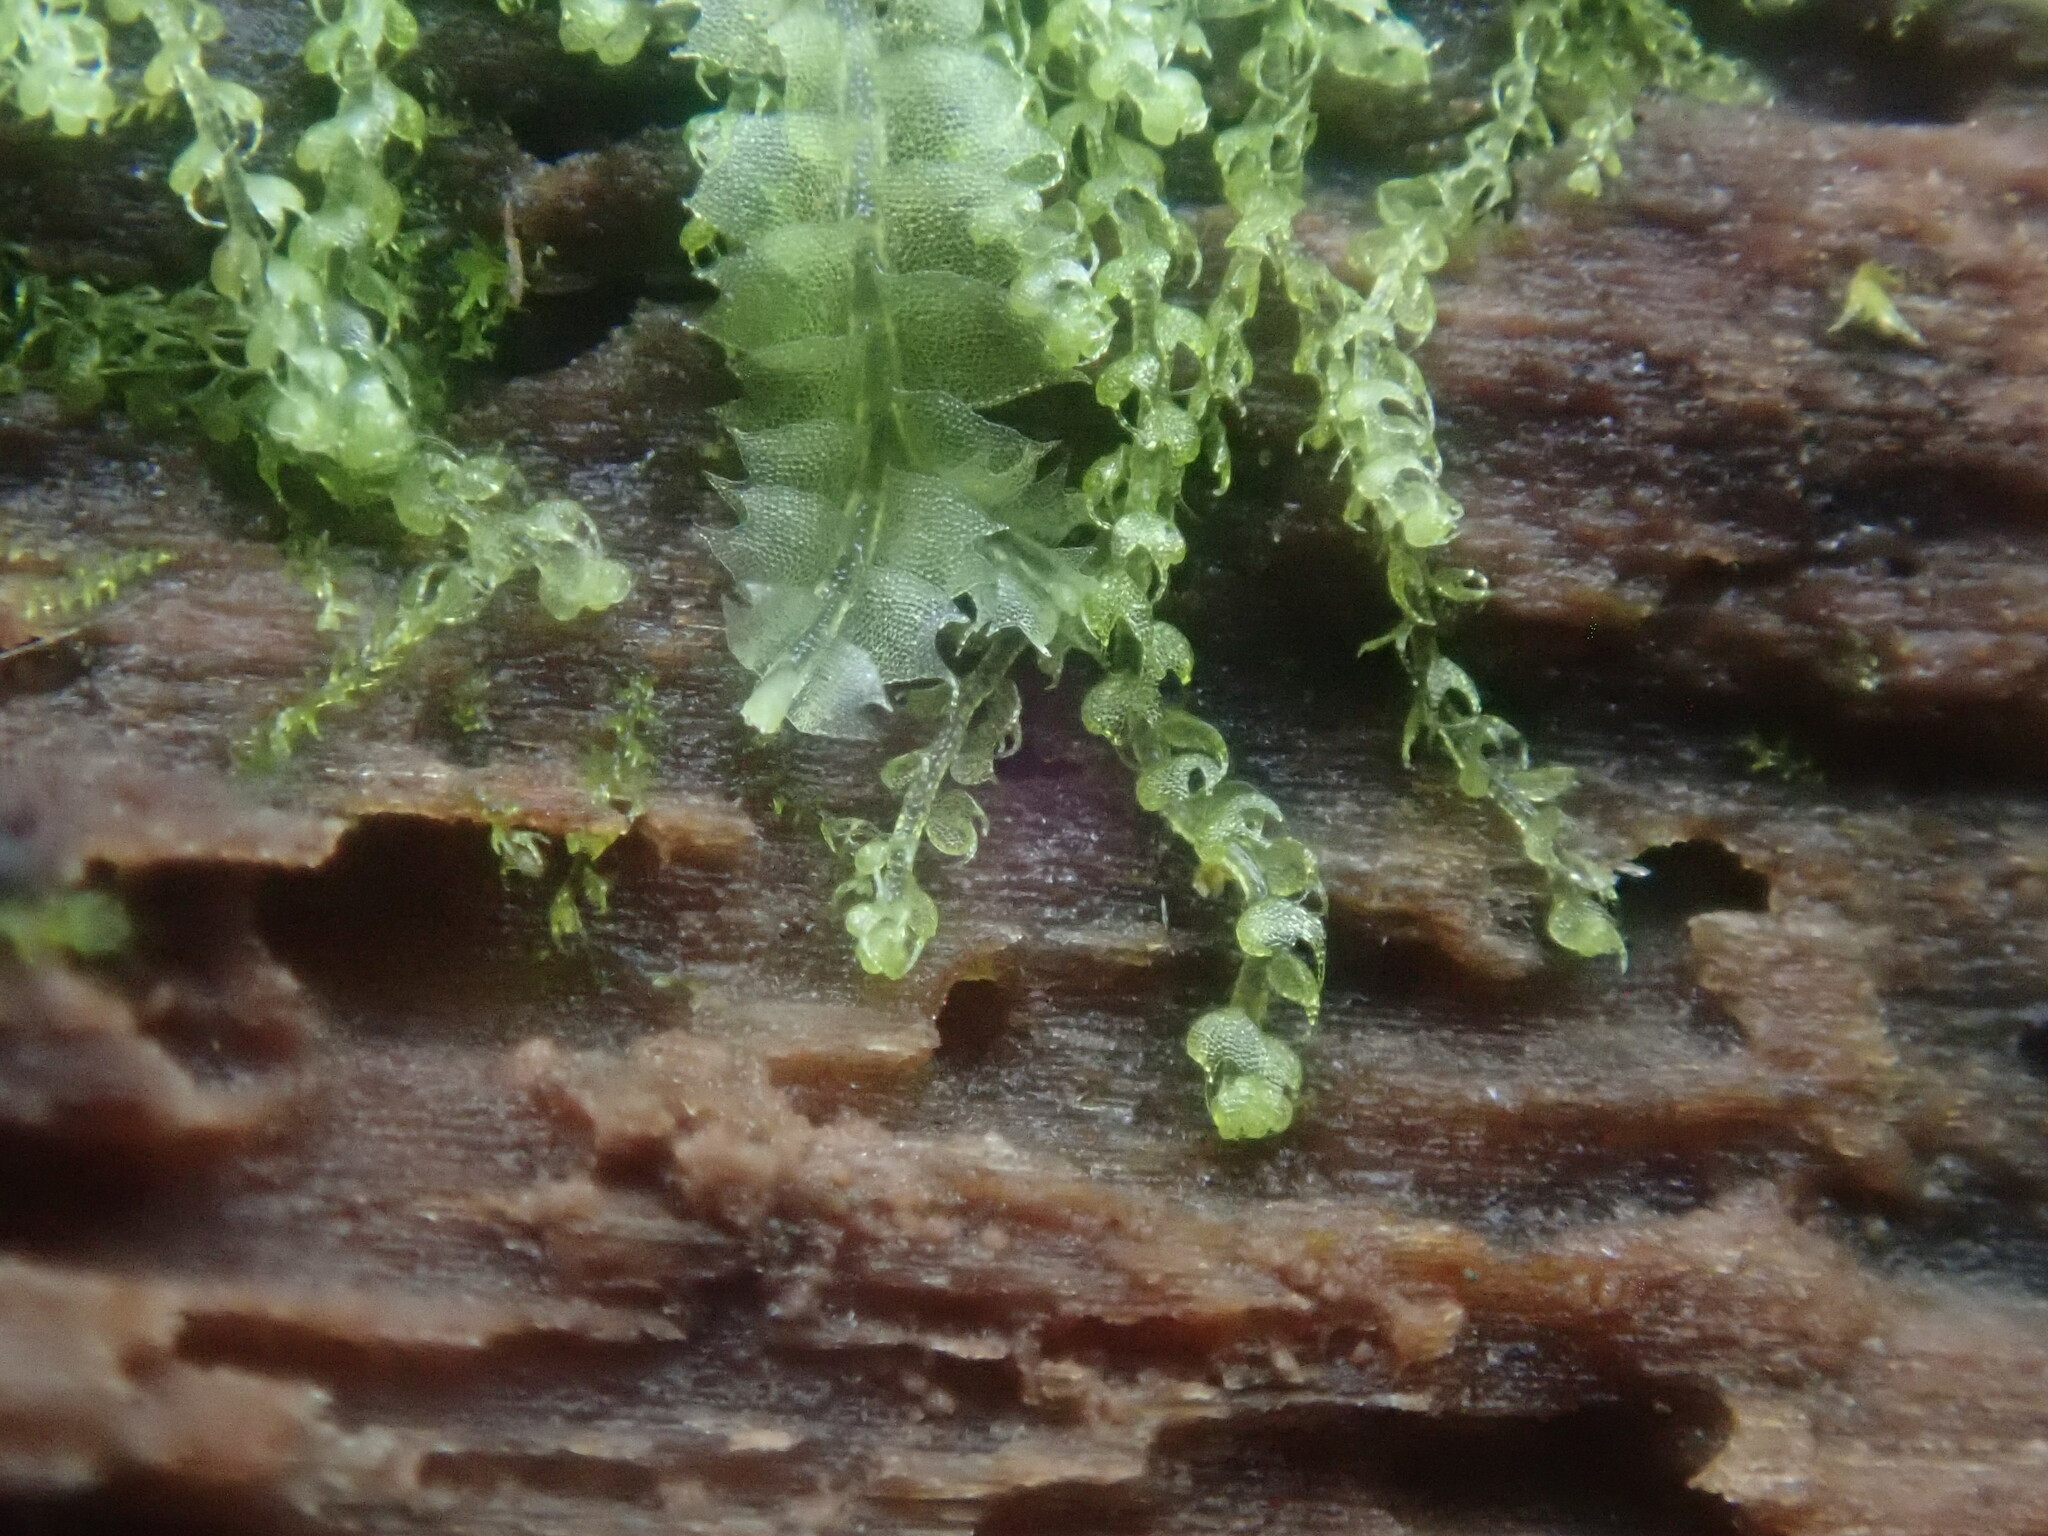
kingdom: Plantae
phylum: Marchantiophyta
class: Jungermanniopsida
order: Jungermanniales
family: Cephaloziaceae
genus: Nowellia
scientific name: Nowellia curvifolia
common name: Wood rustwort
